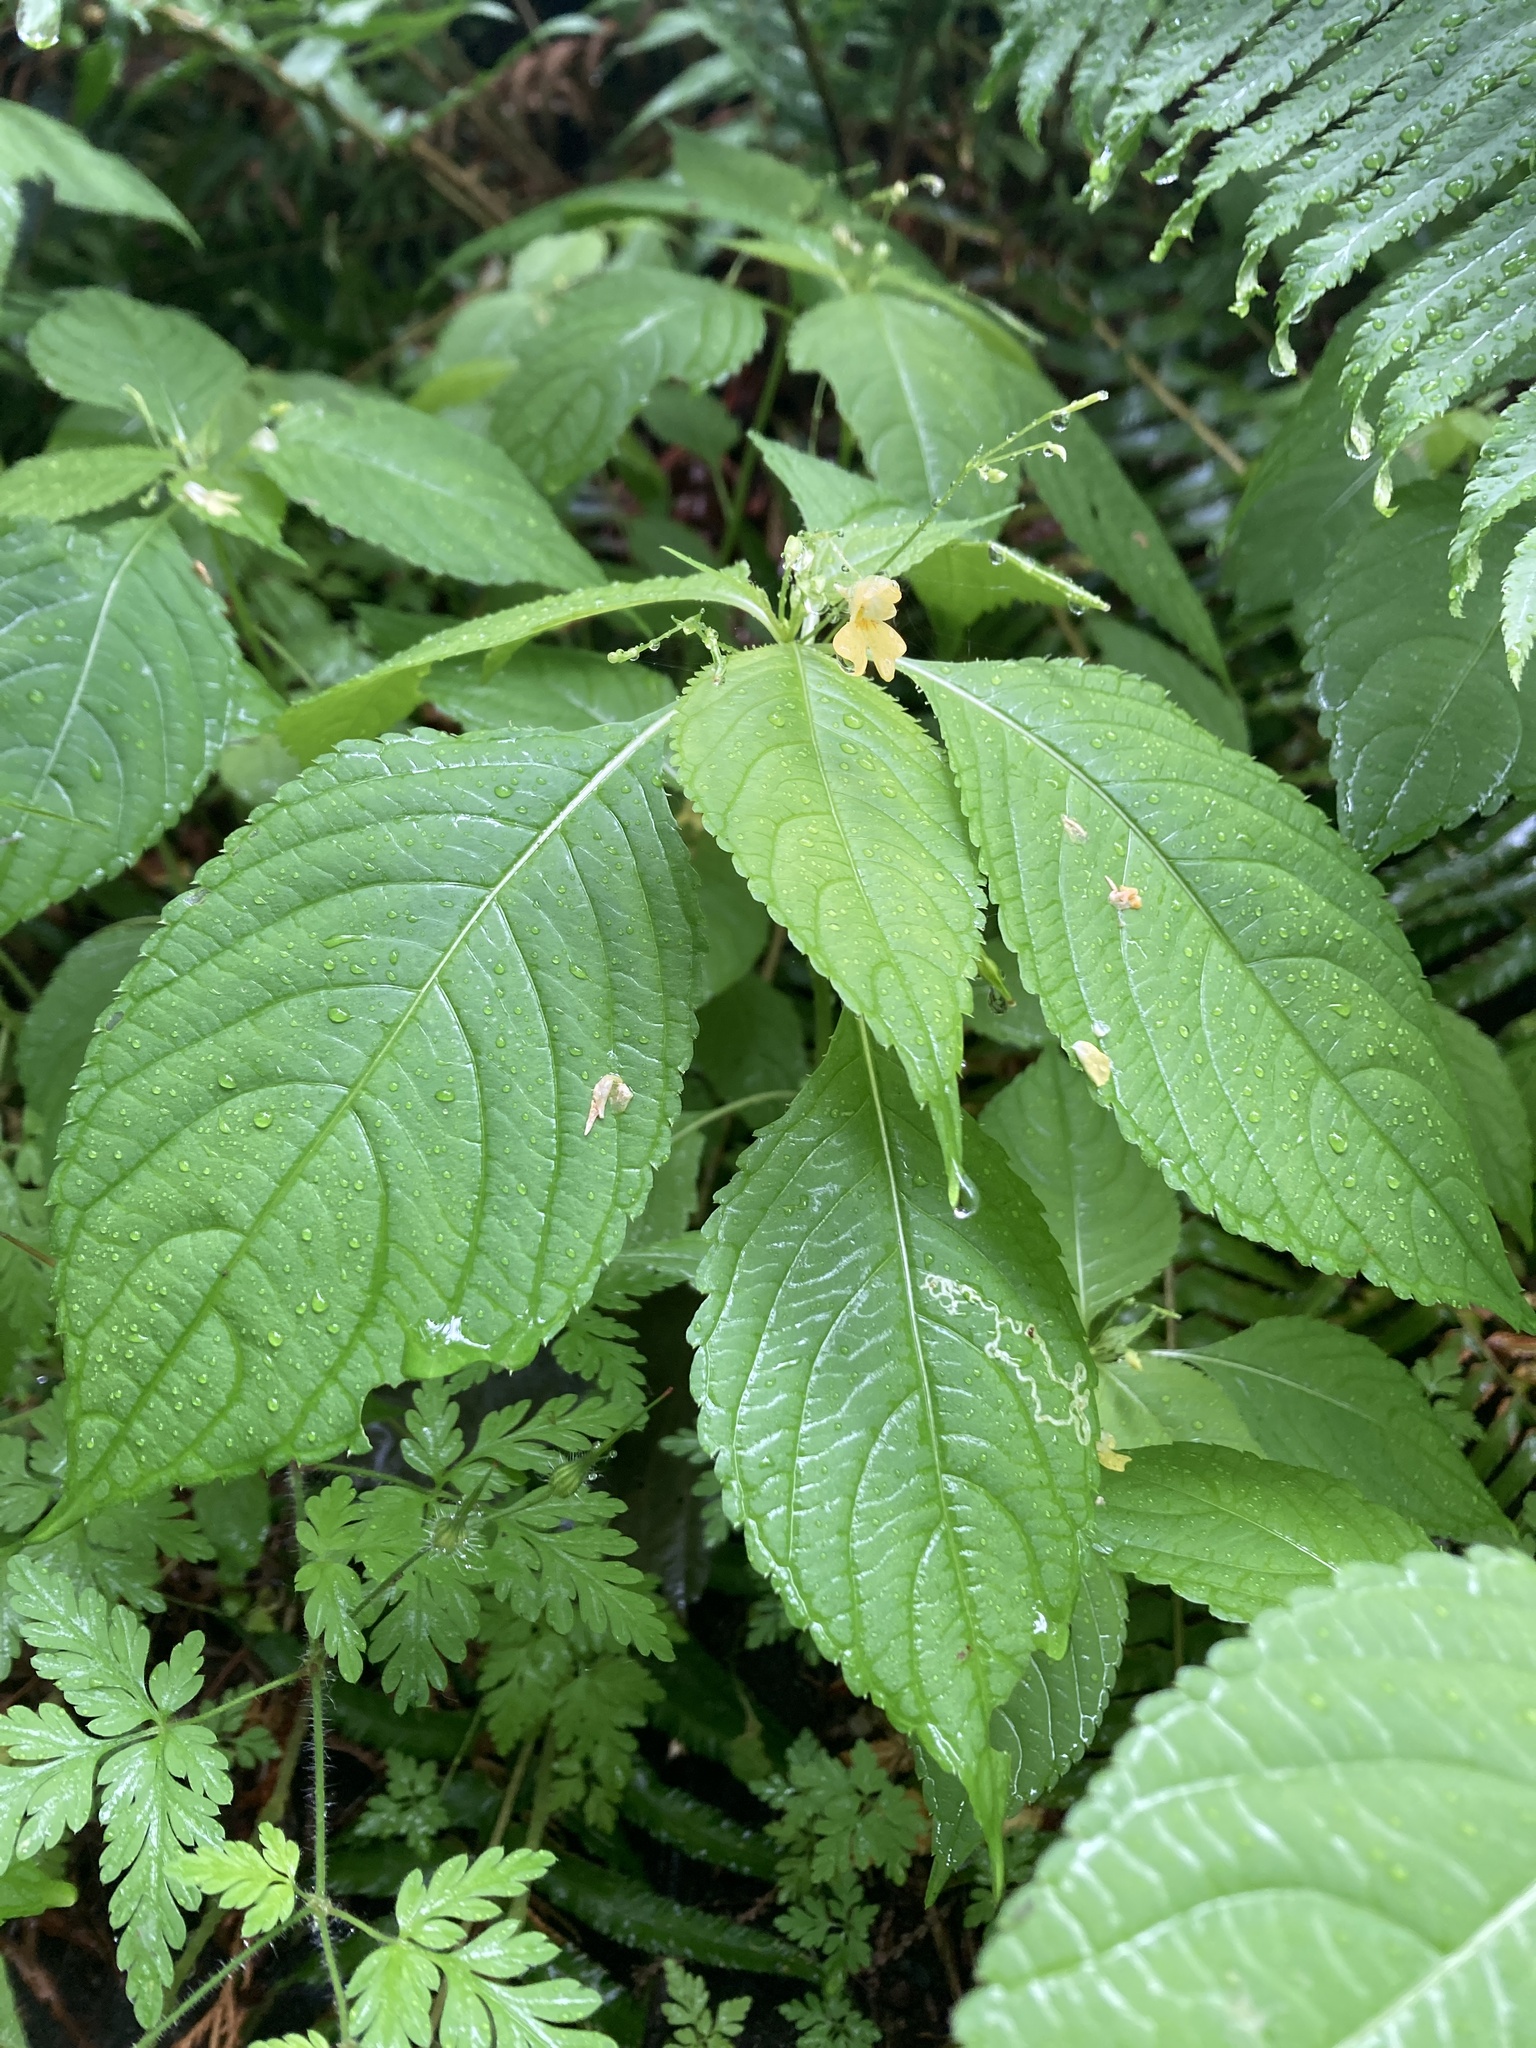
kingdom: Plantae
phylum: Tracheophyta
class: Magnoliopsida
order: Ericales
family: Balsaminaceae
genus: Impatiens
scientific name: Impatiens parviflora
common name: Small balsam
